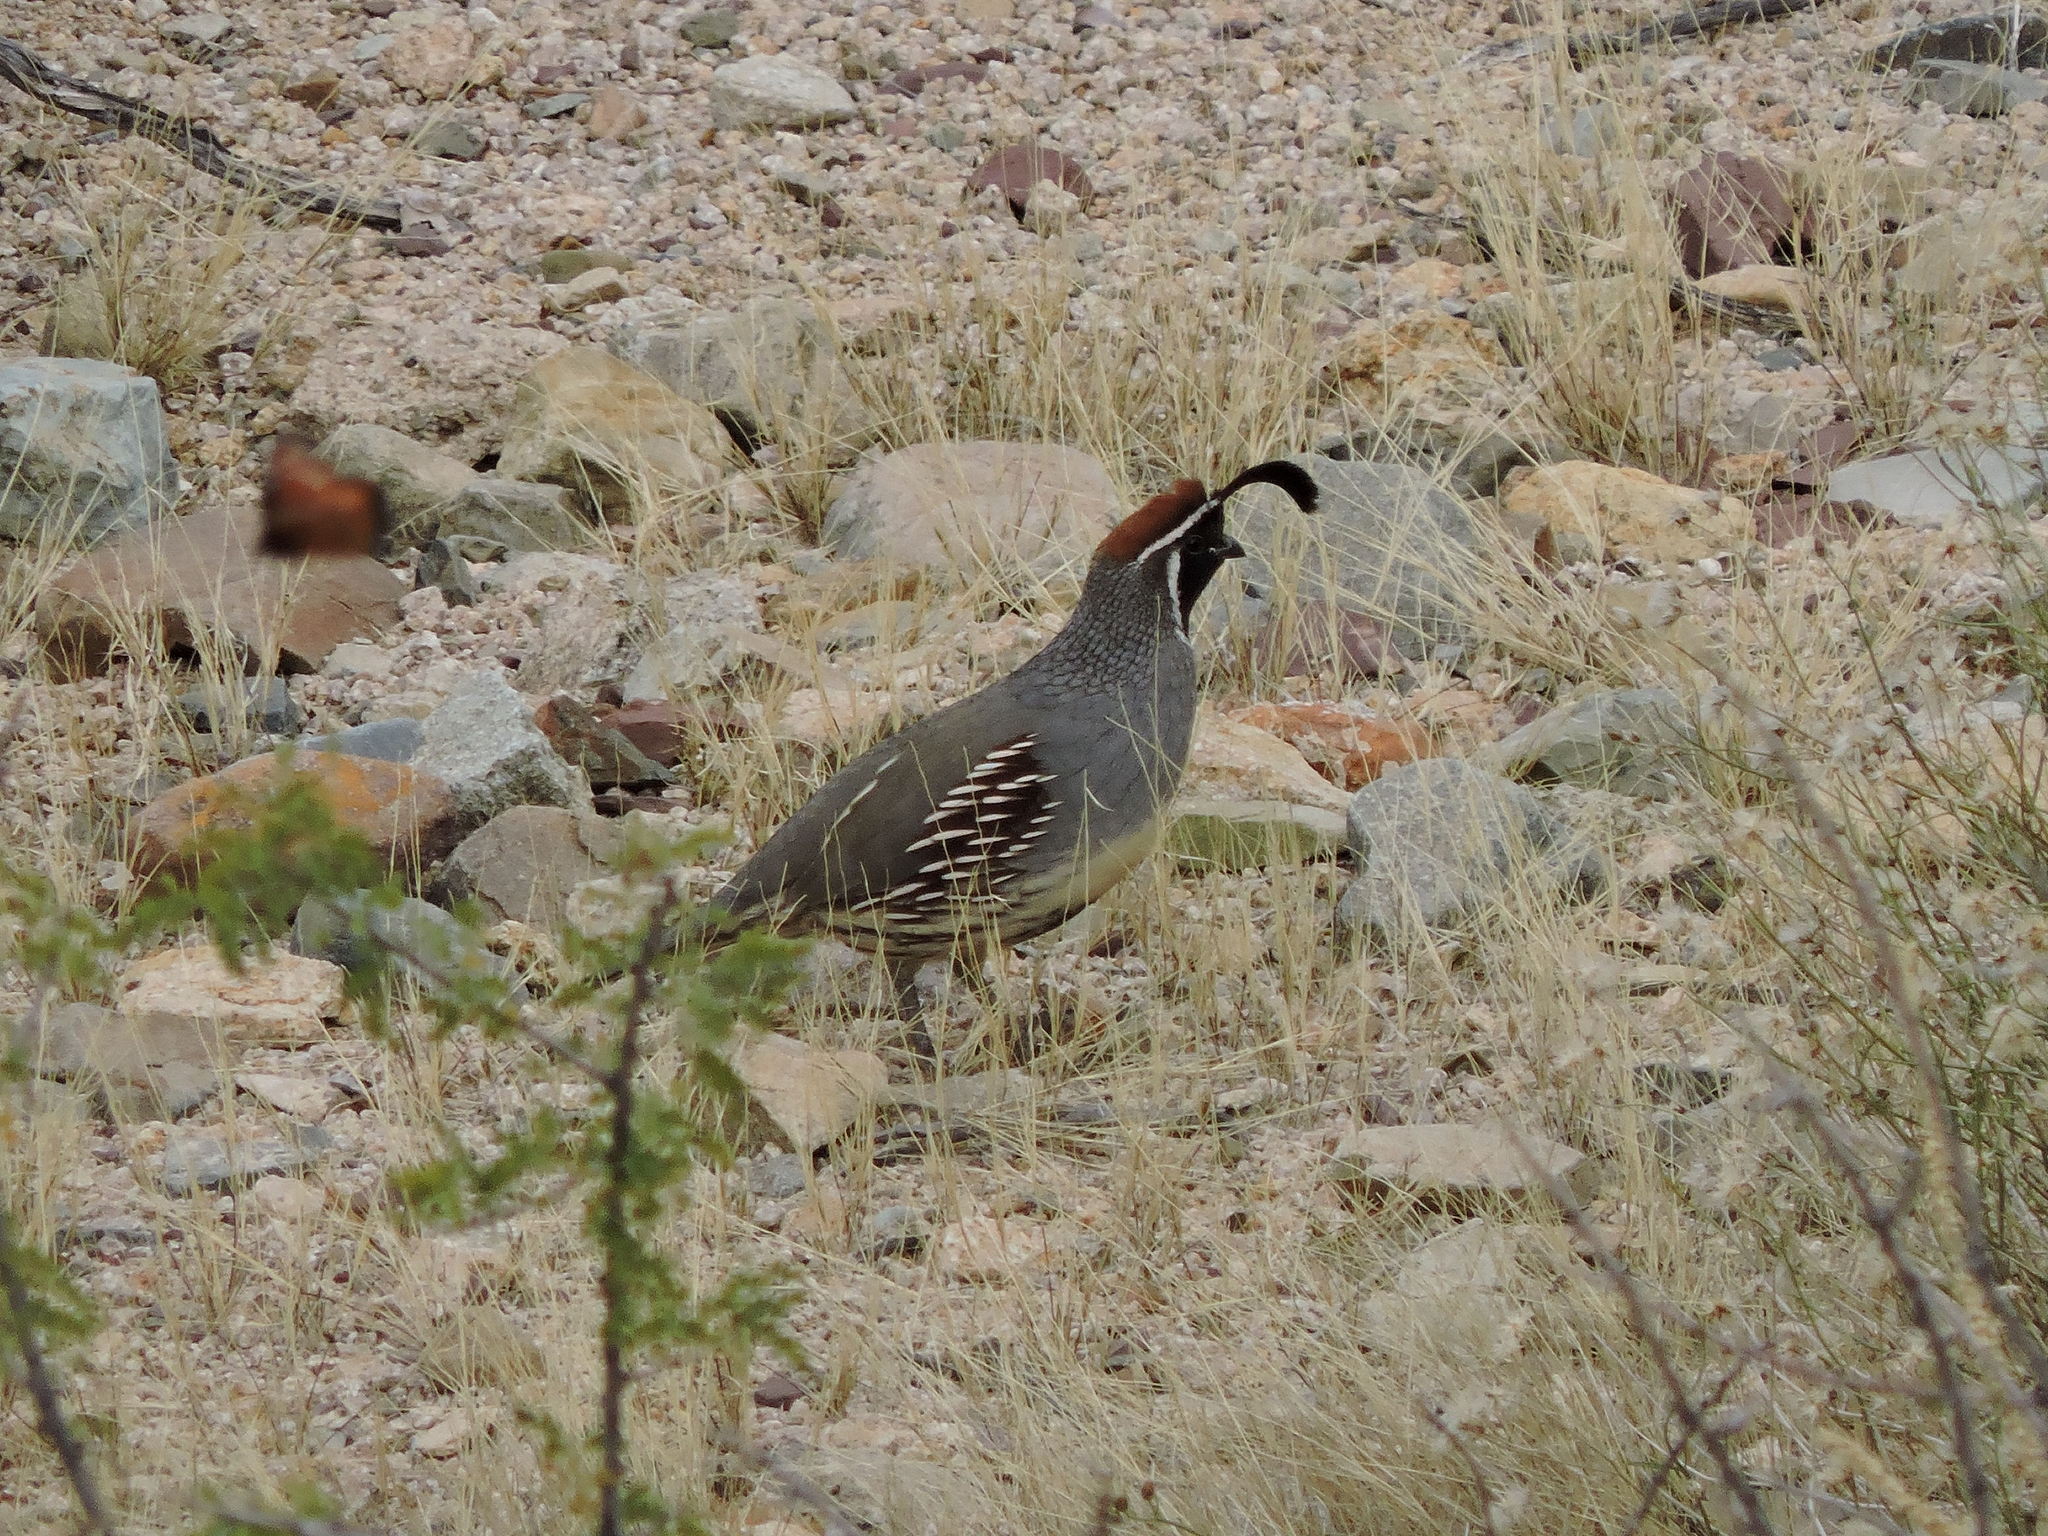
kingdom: Animalia
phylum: Chordata
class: Aves
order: Galliformes
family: Odontophoridae
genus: Callipepla
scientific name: Callipepla gambelii
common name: Gambel's quail
